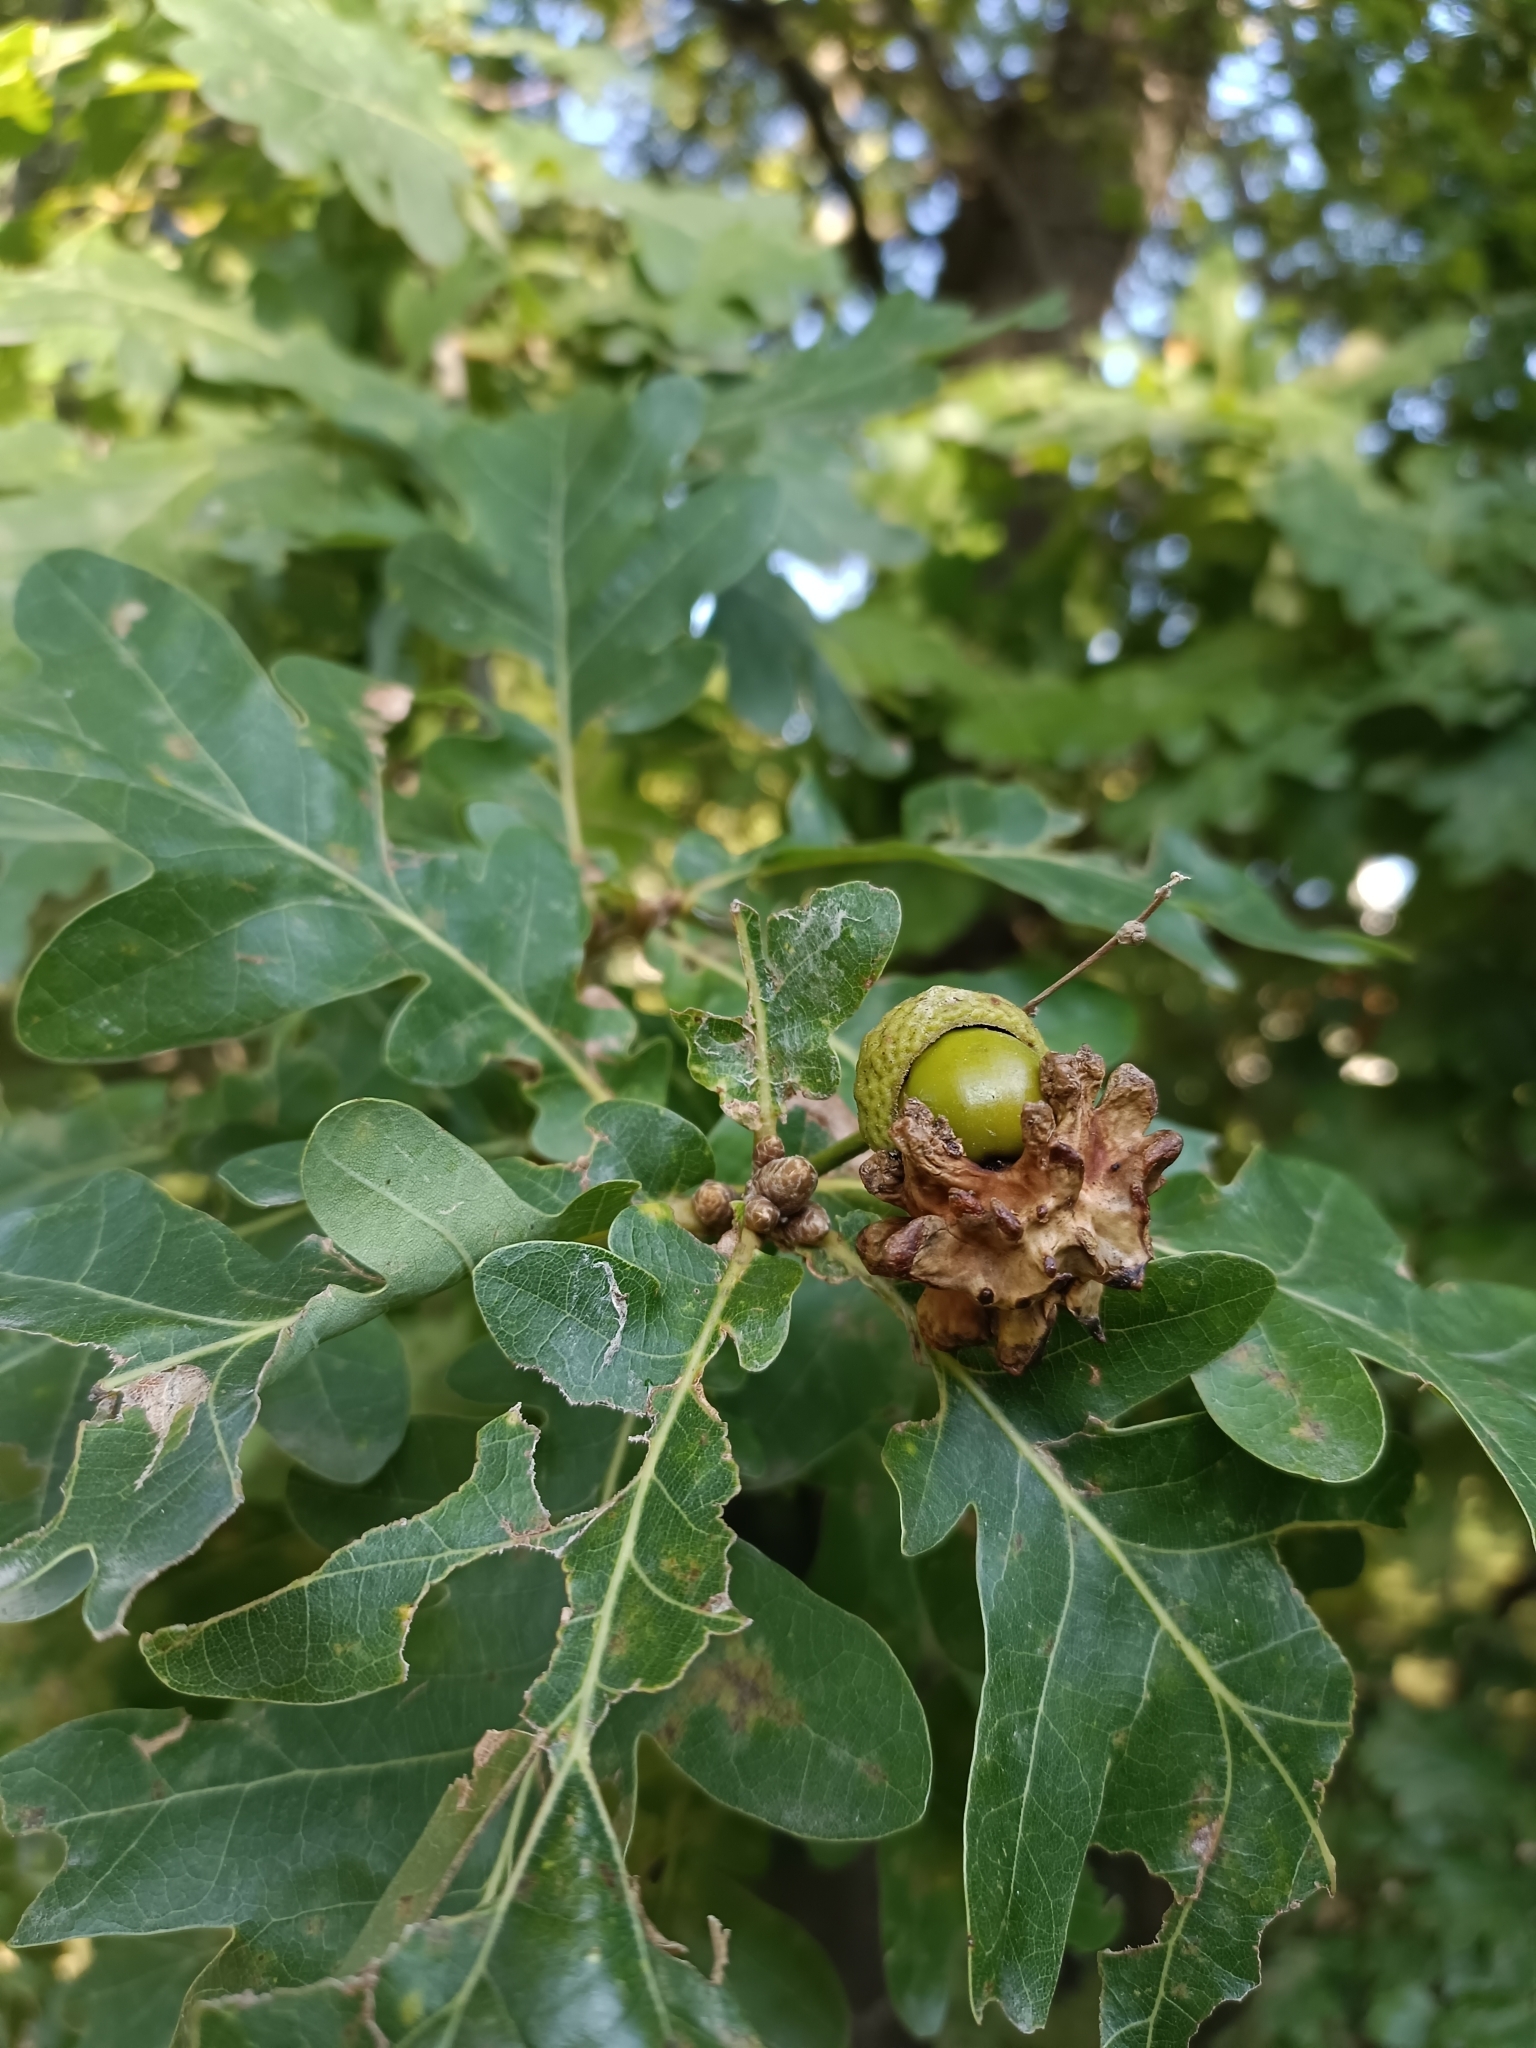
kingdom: Animalia
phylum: Arthropoda
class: Insecta
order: Hymenoptera
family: Cynipidae
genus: Andricus
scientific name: Andricus quercuscalicis
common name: Knopper gall
